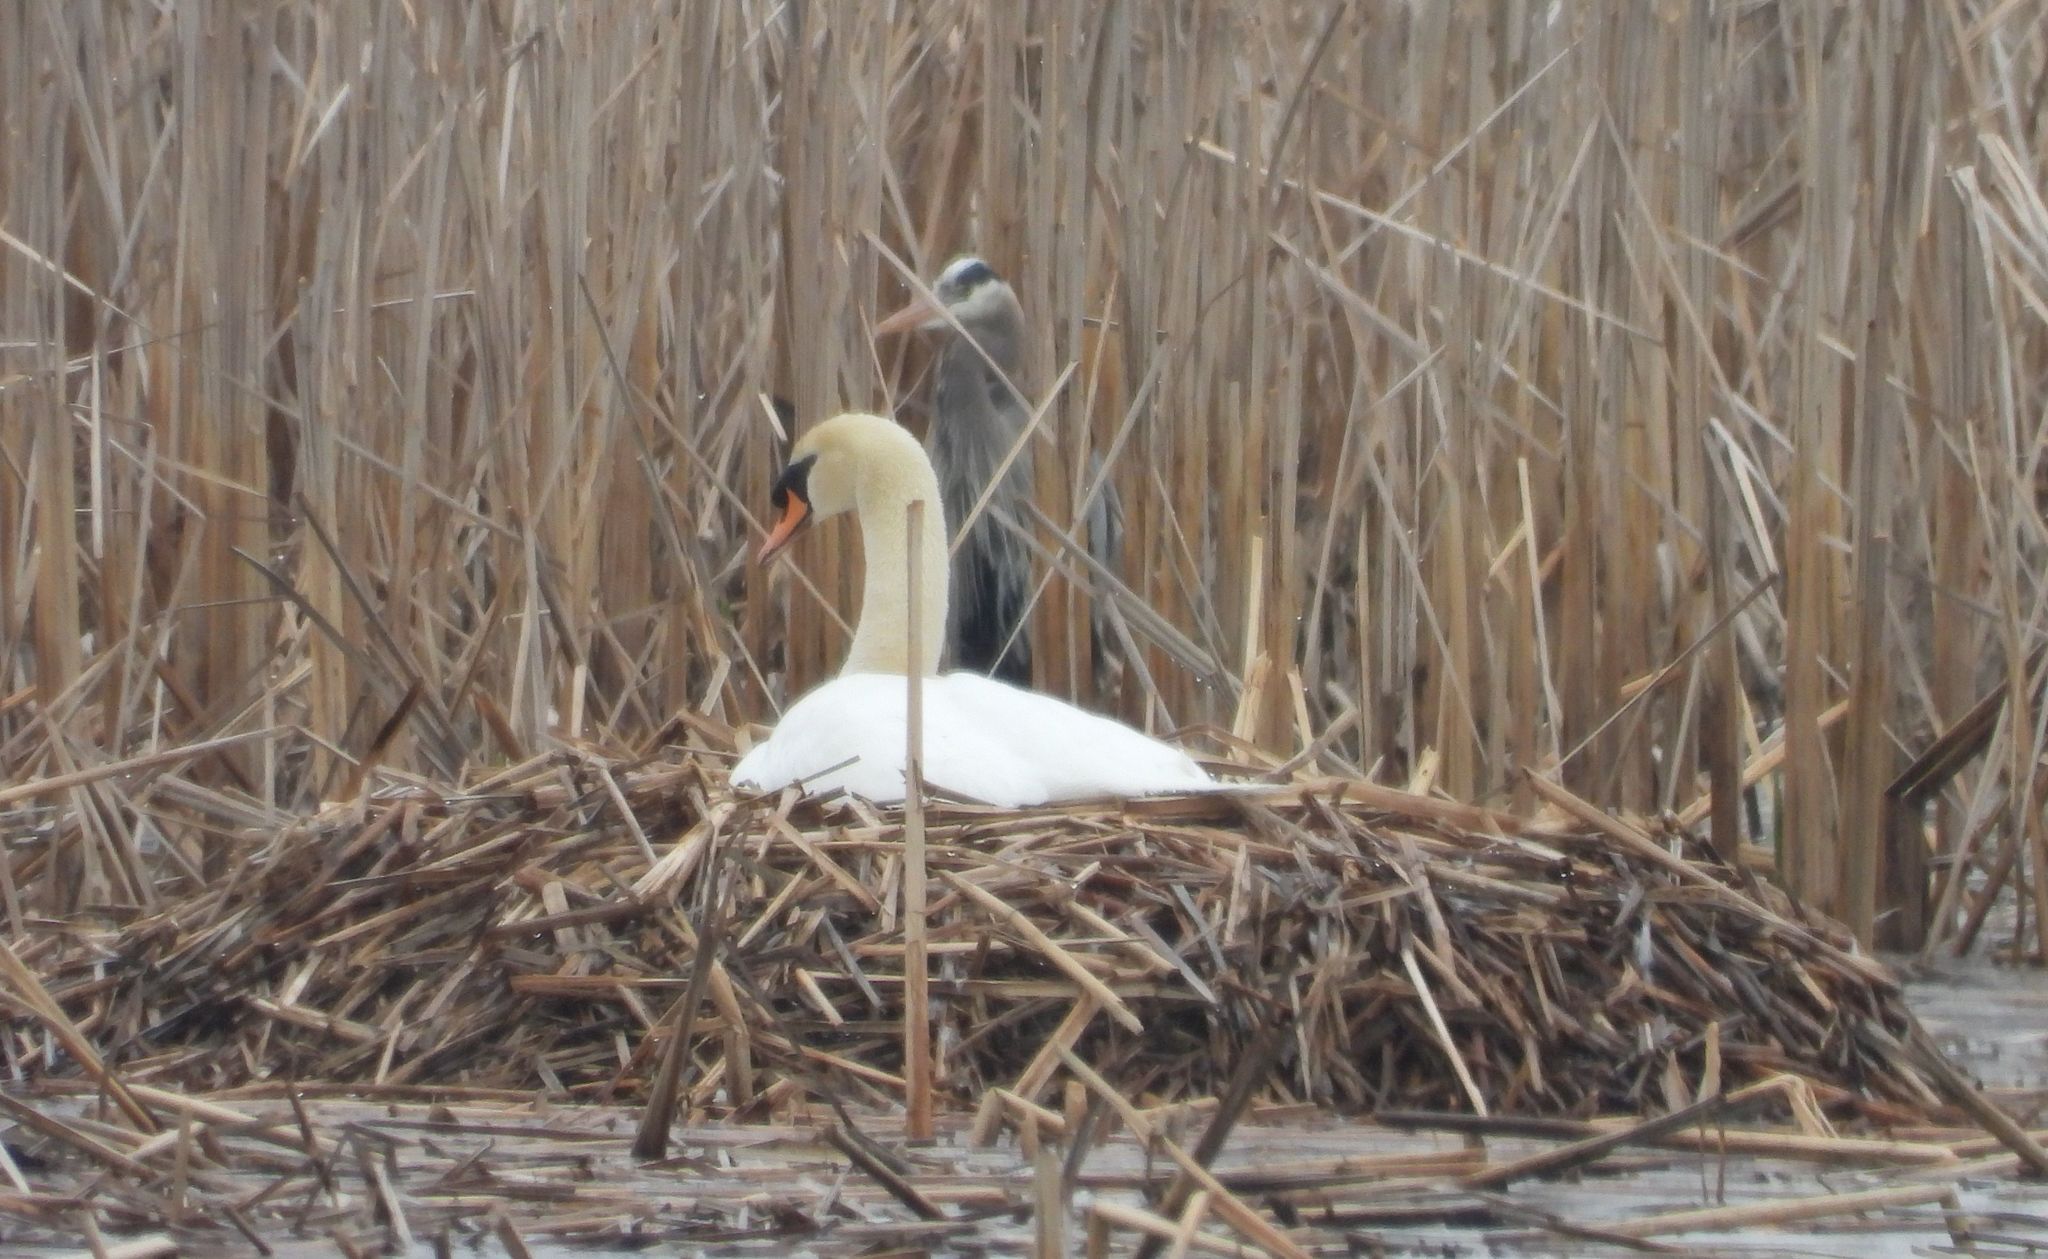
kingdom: Animalia
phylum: Chordata
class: Aves
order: Anseriformes
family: Anatidae
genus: Cygnus
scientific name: Cygnus olor
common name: Mute swan
